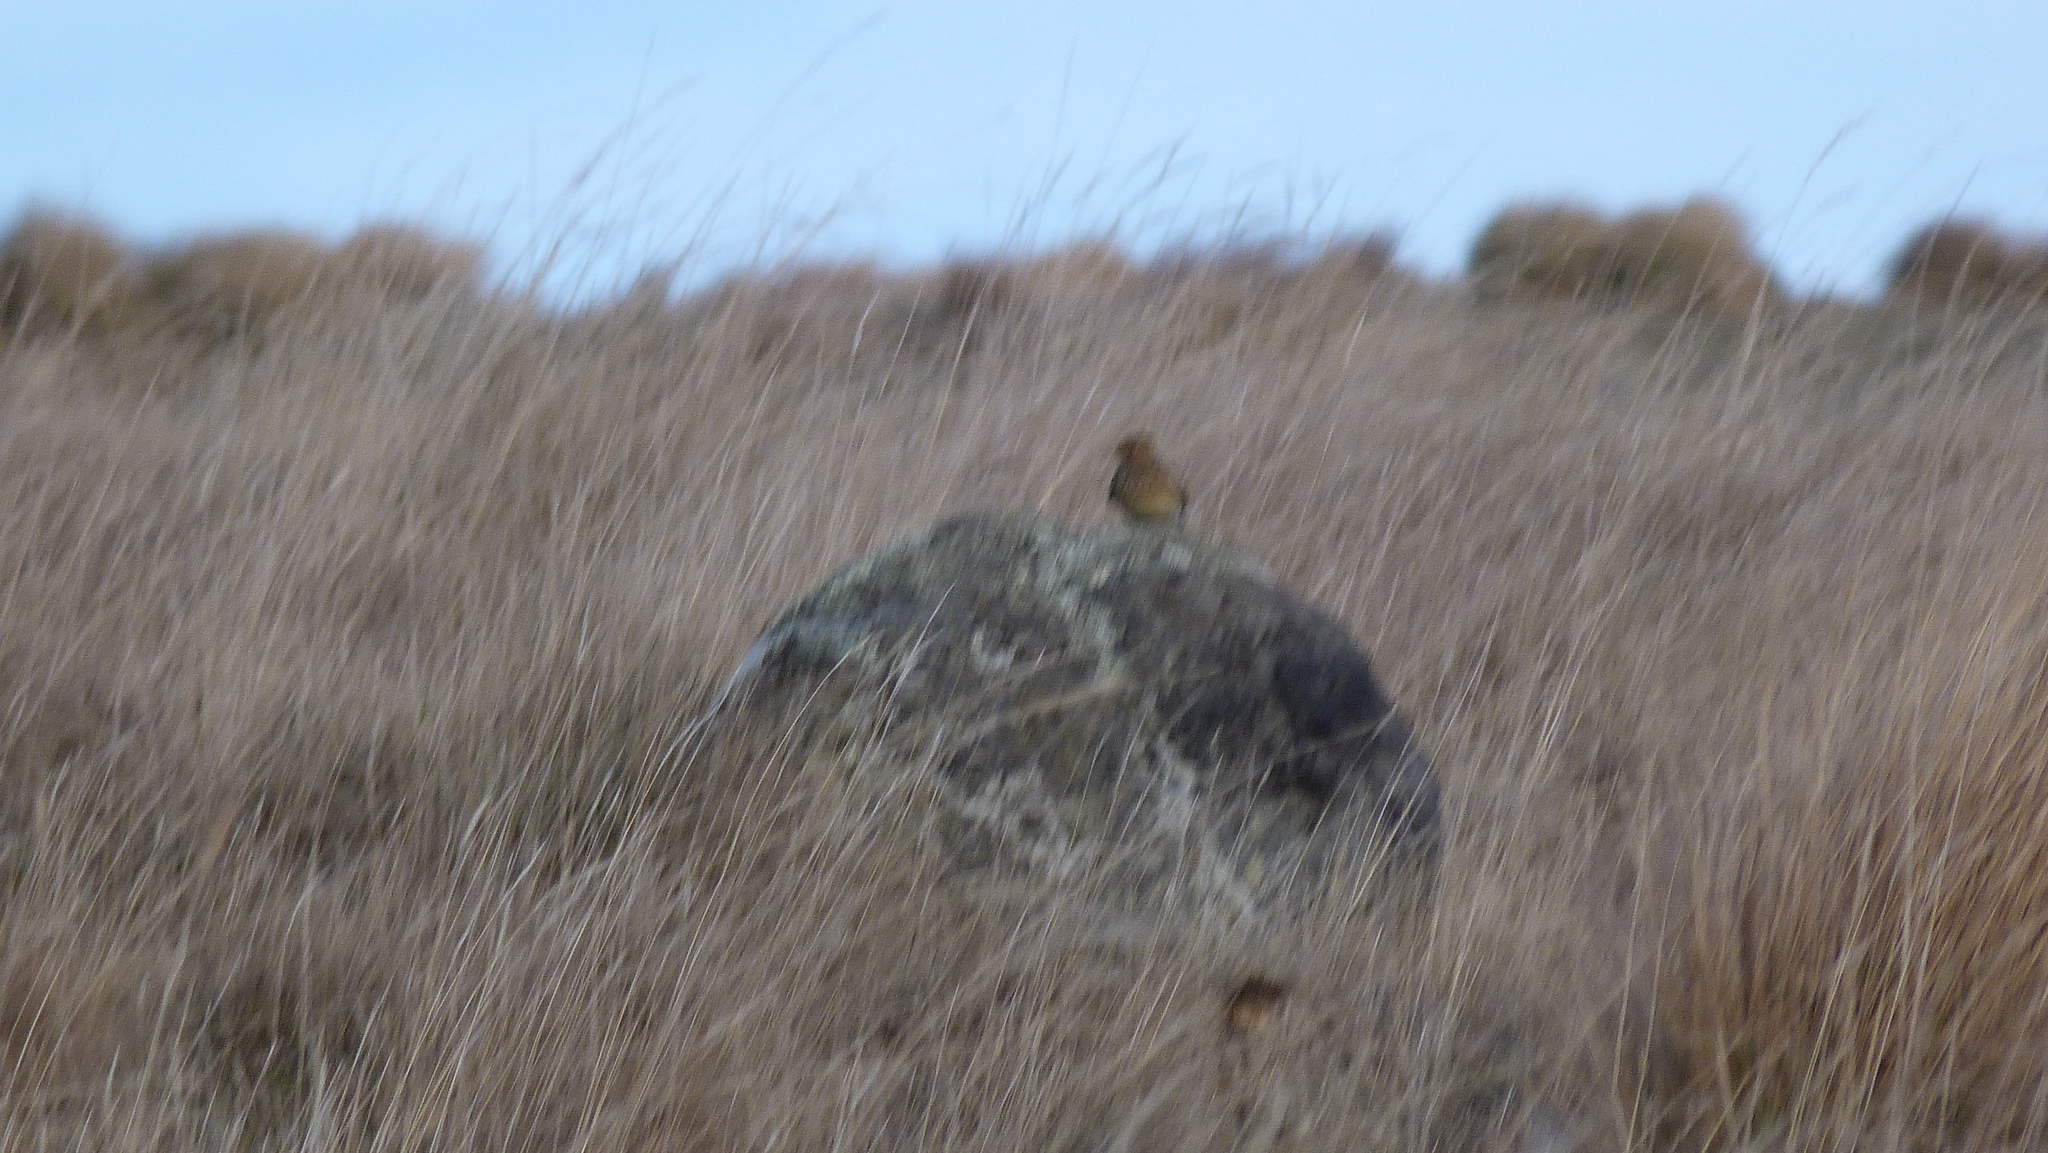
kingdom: Animalia
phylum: Chordata
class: Aves
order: Passeriformes
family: Motacillidae
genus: Anthus
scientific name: Anthus novaeseelandiae
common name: New zealand pipit
